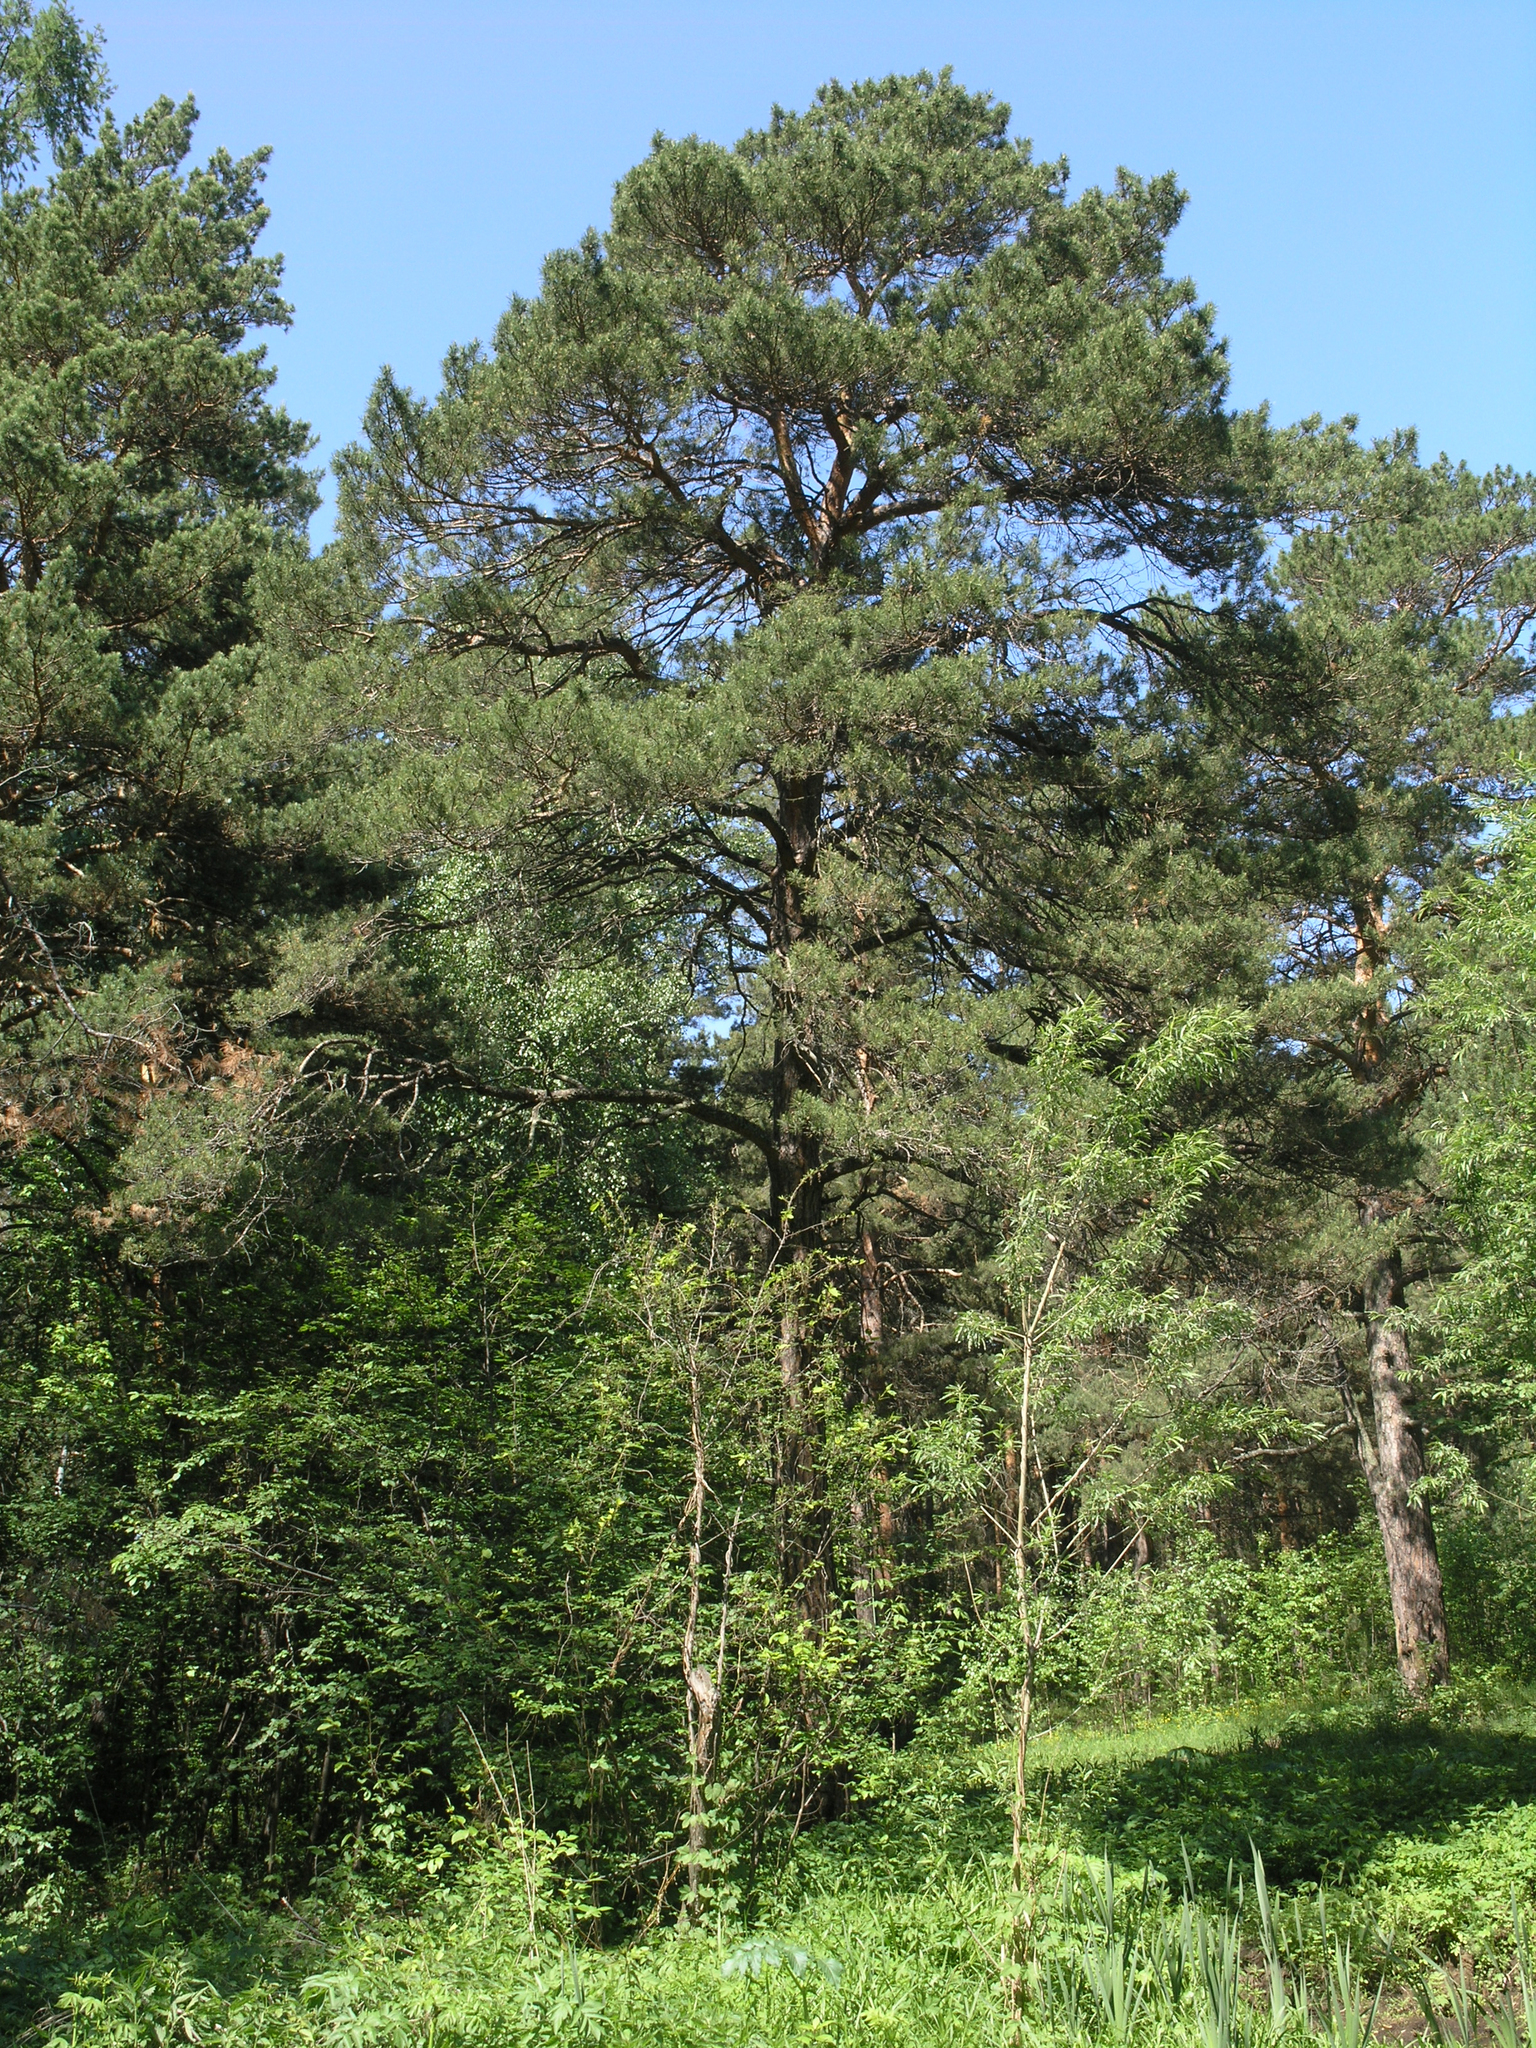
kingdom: Plantae
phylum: Tracheophyta
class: Pinopsida
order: Pinales
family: Pinaceae
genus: Pinus
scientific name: Pinus sylvestris
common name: Scots pine
